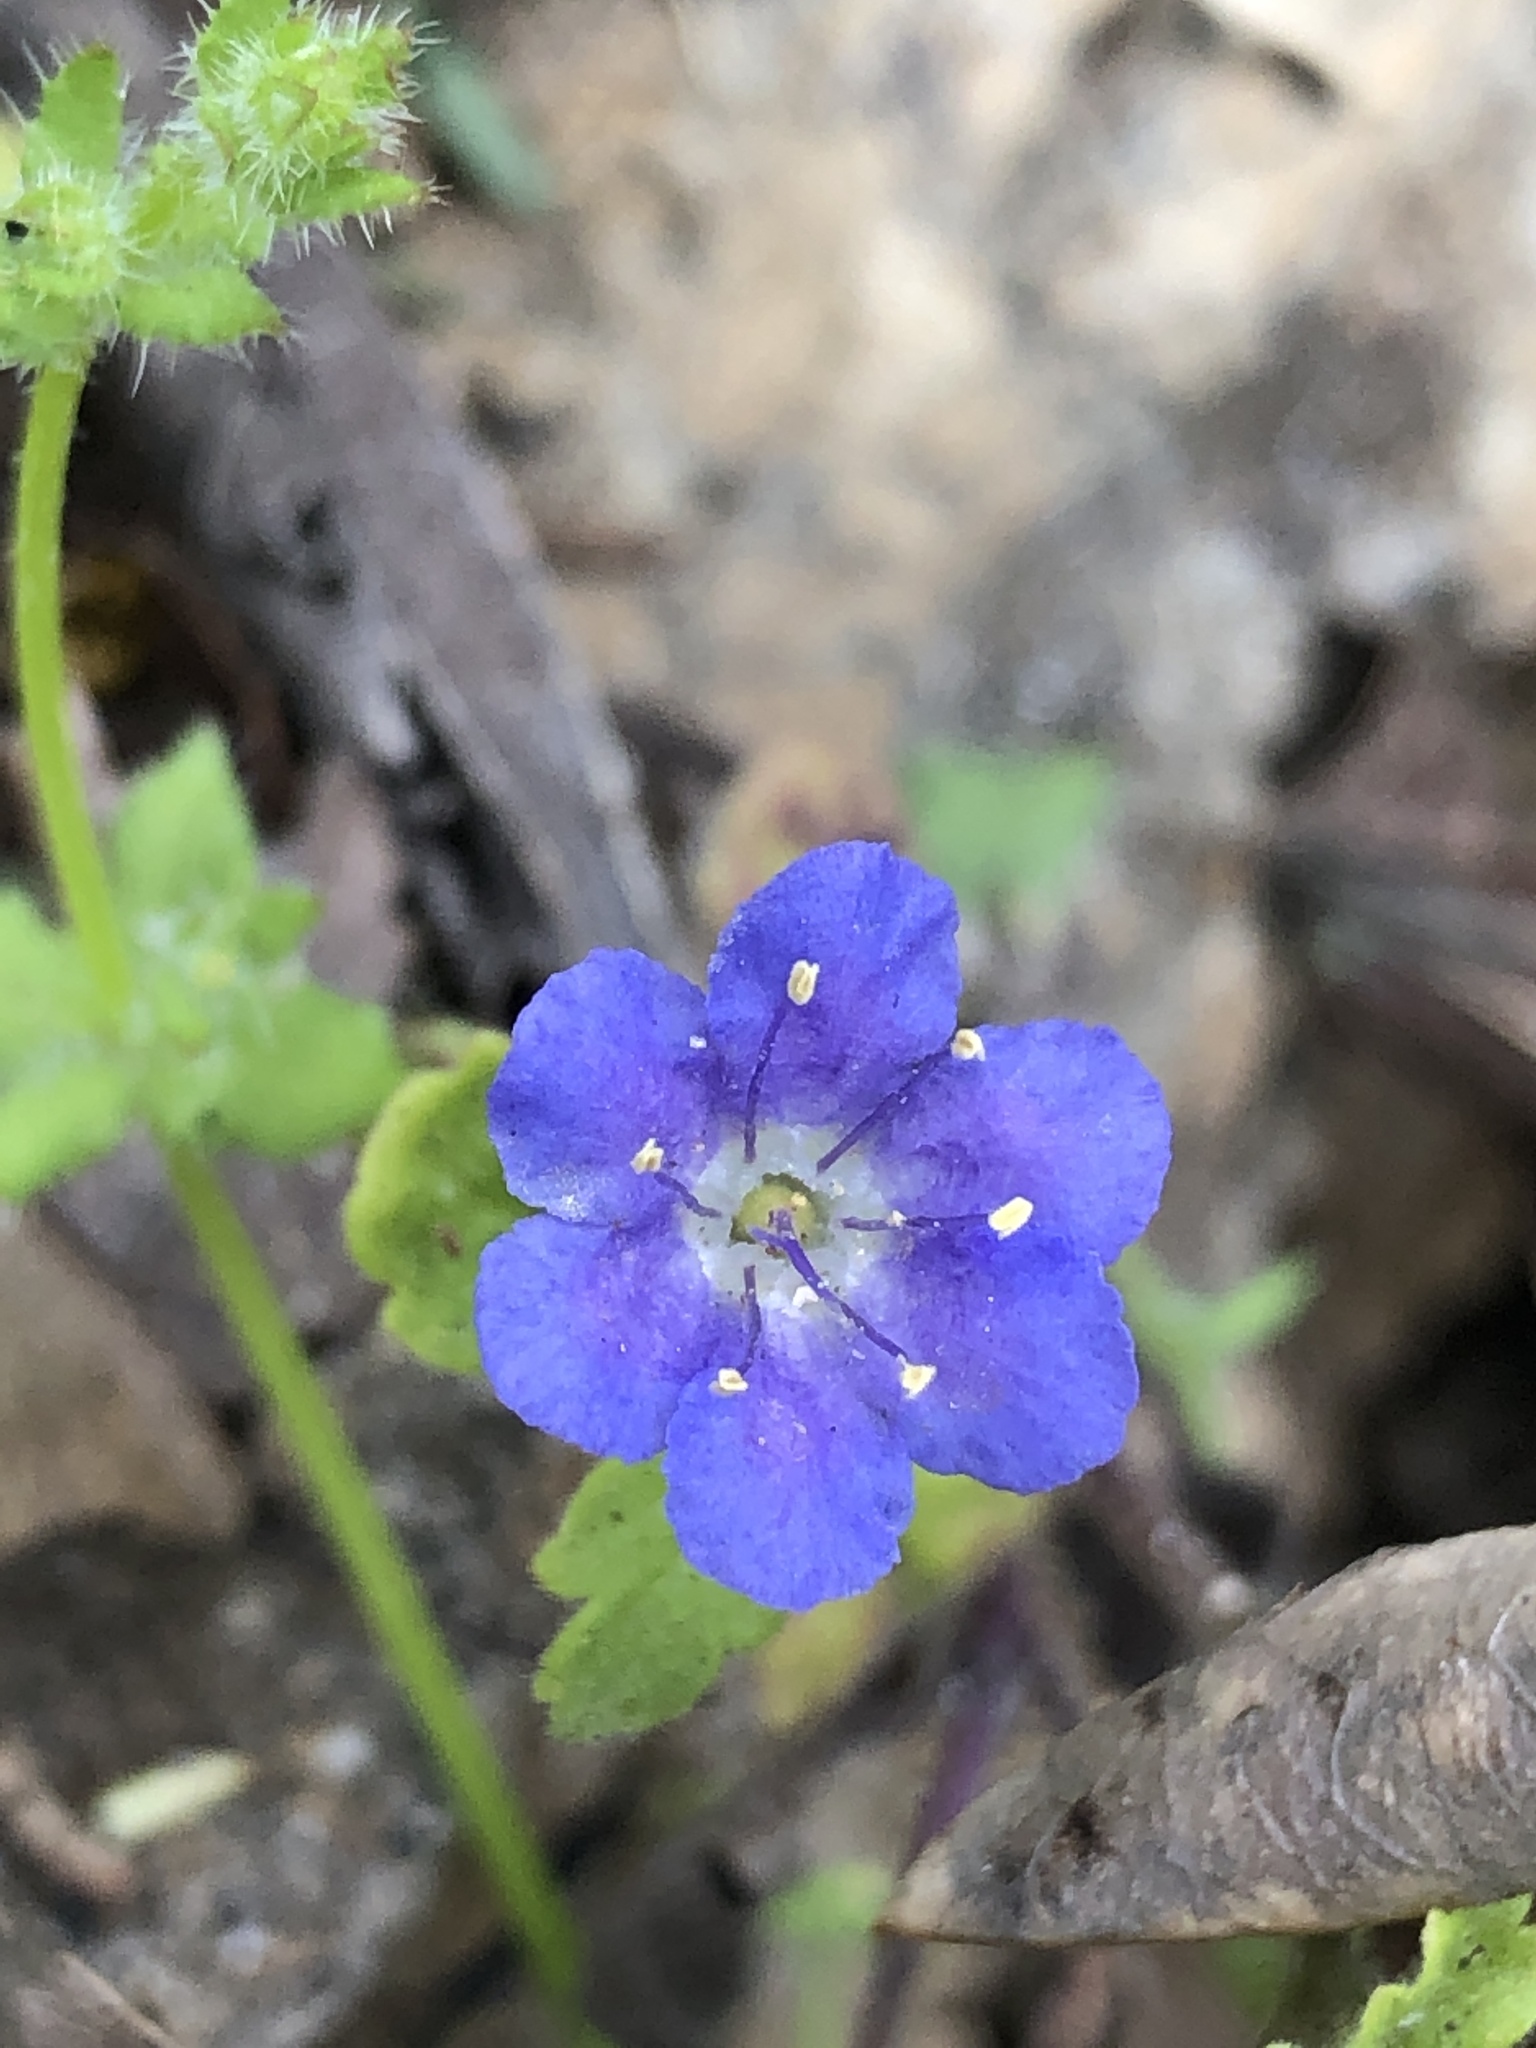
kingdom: Plantae
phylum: Tracheophyta
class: Magnoliopsida
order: Boraginales
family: Hydrophyllaceae
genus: Phacelia
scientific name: Phacelia congesta
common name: Blue curls
